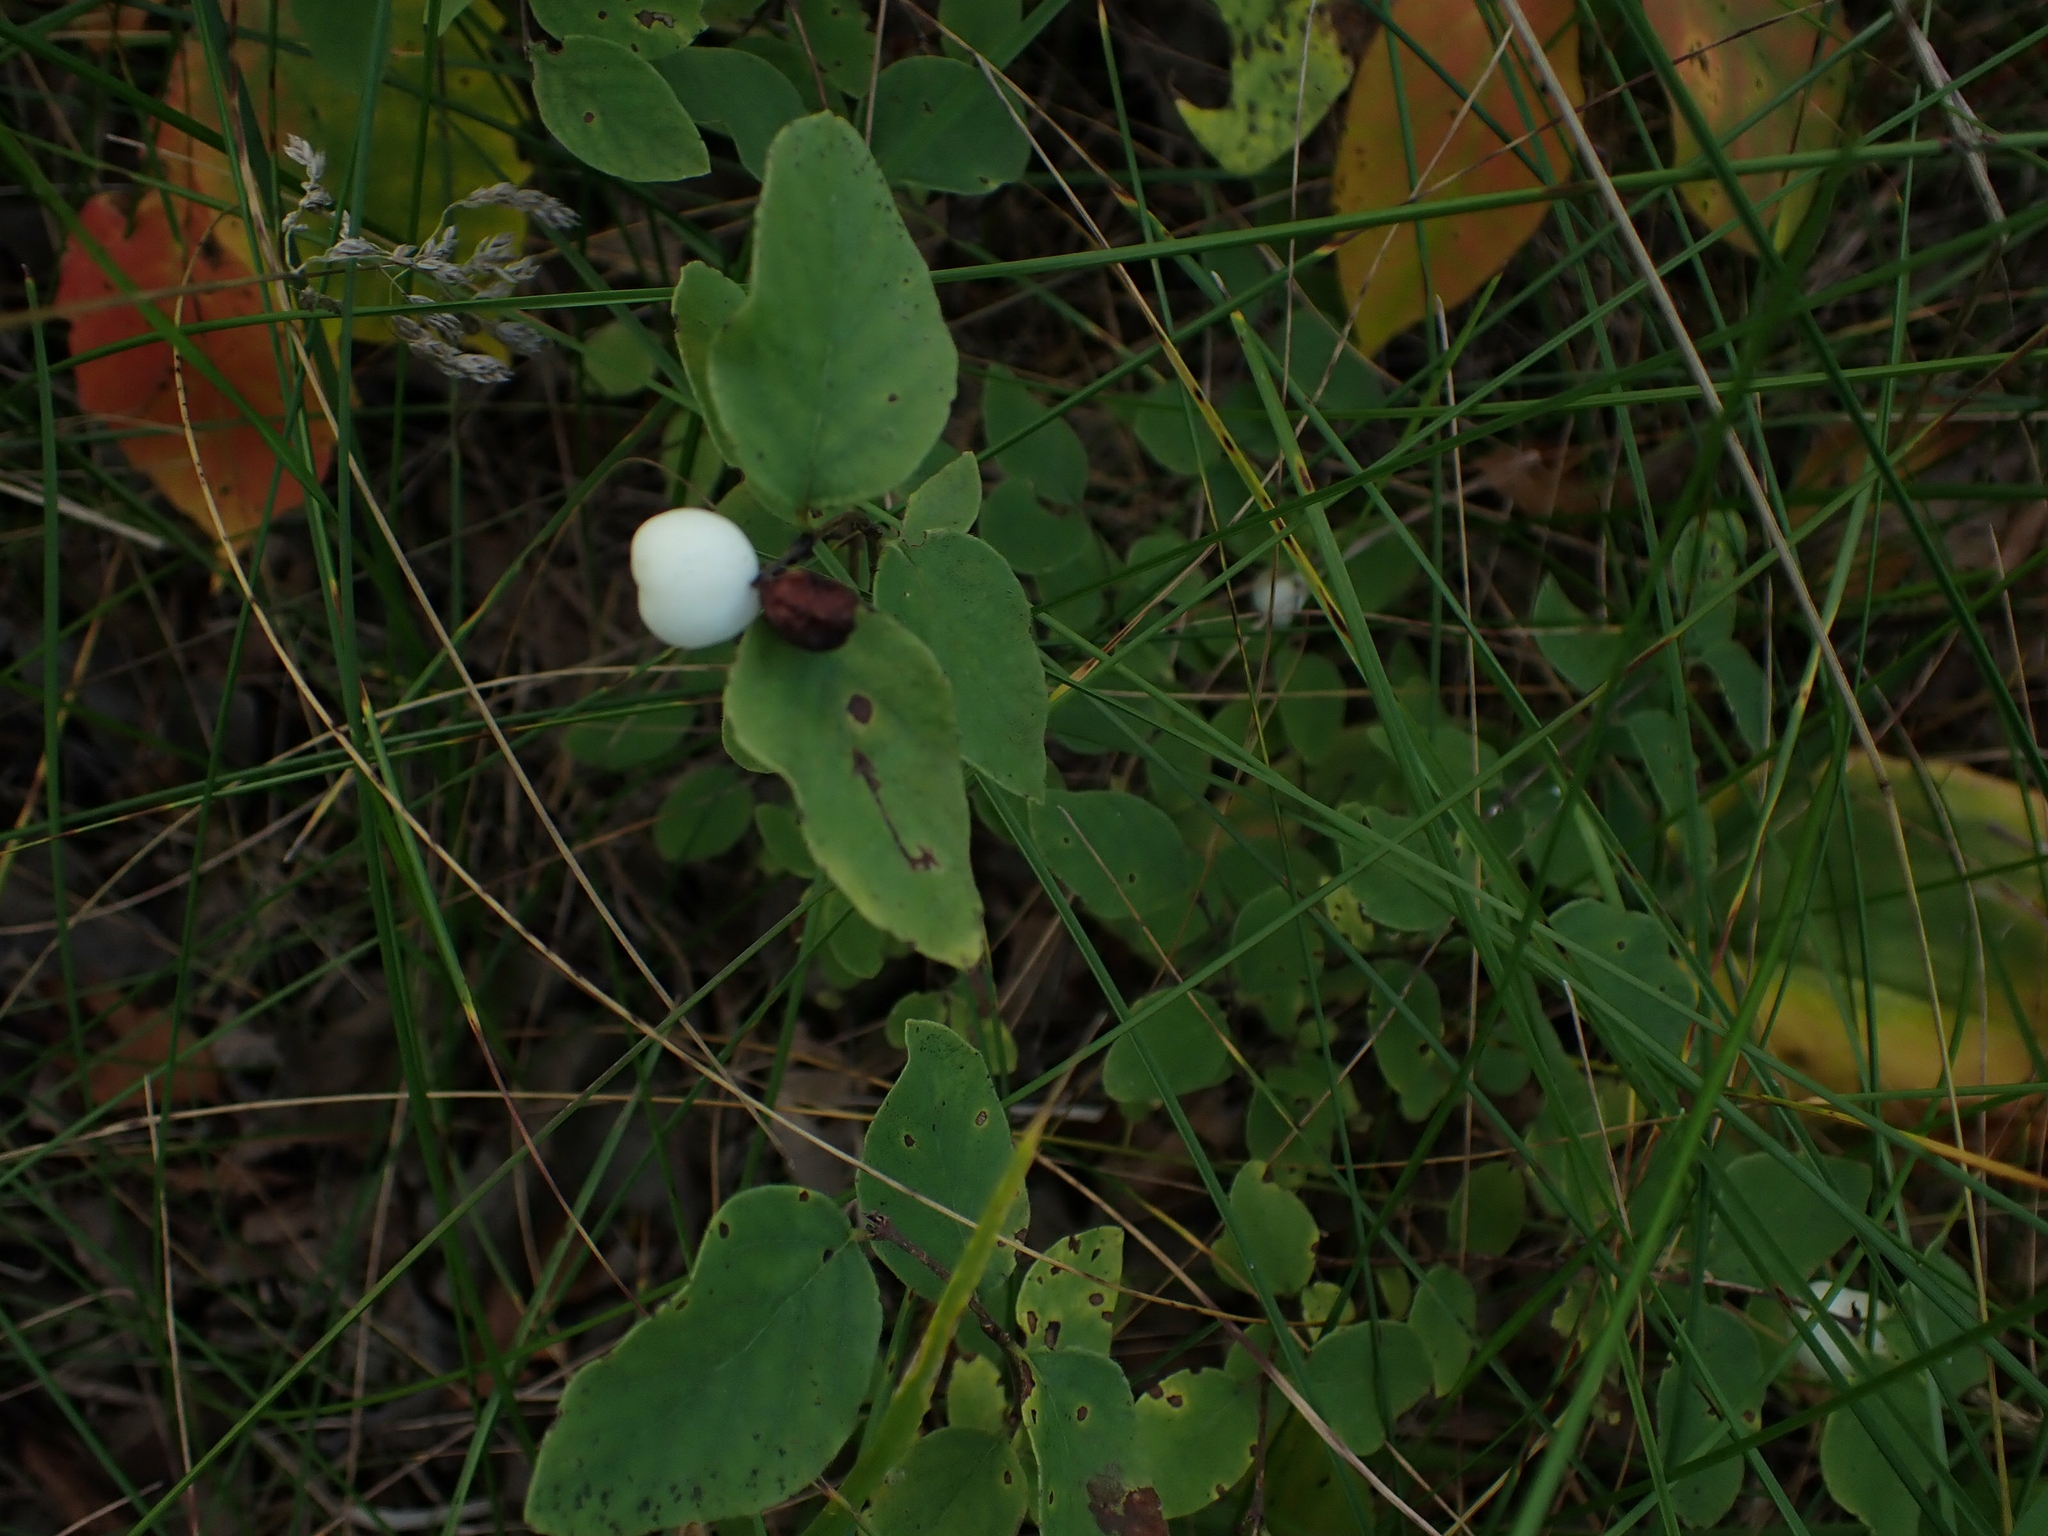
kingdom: Plantae
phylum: Tracheophyta
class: Magnoliopsida
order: Dipsacales
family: Caprifoliaceae
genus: Symphoricarpos
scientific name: Symphoricarpos albus
